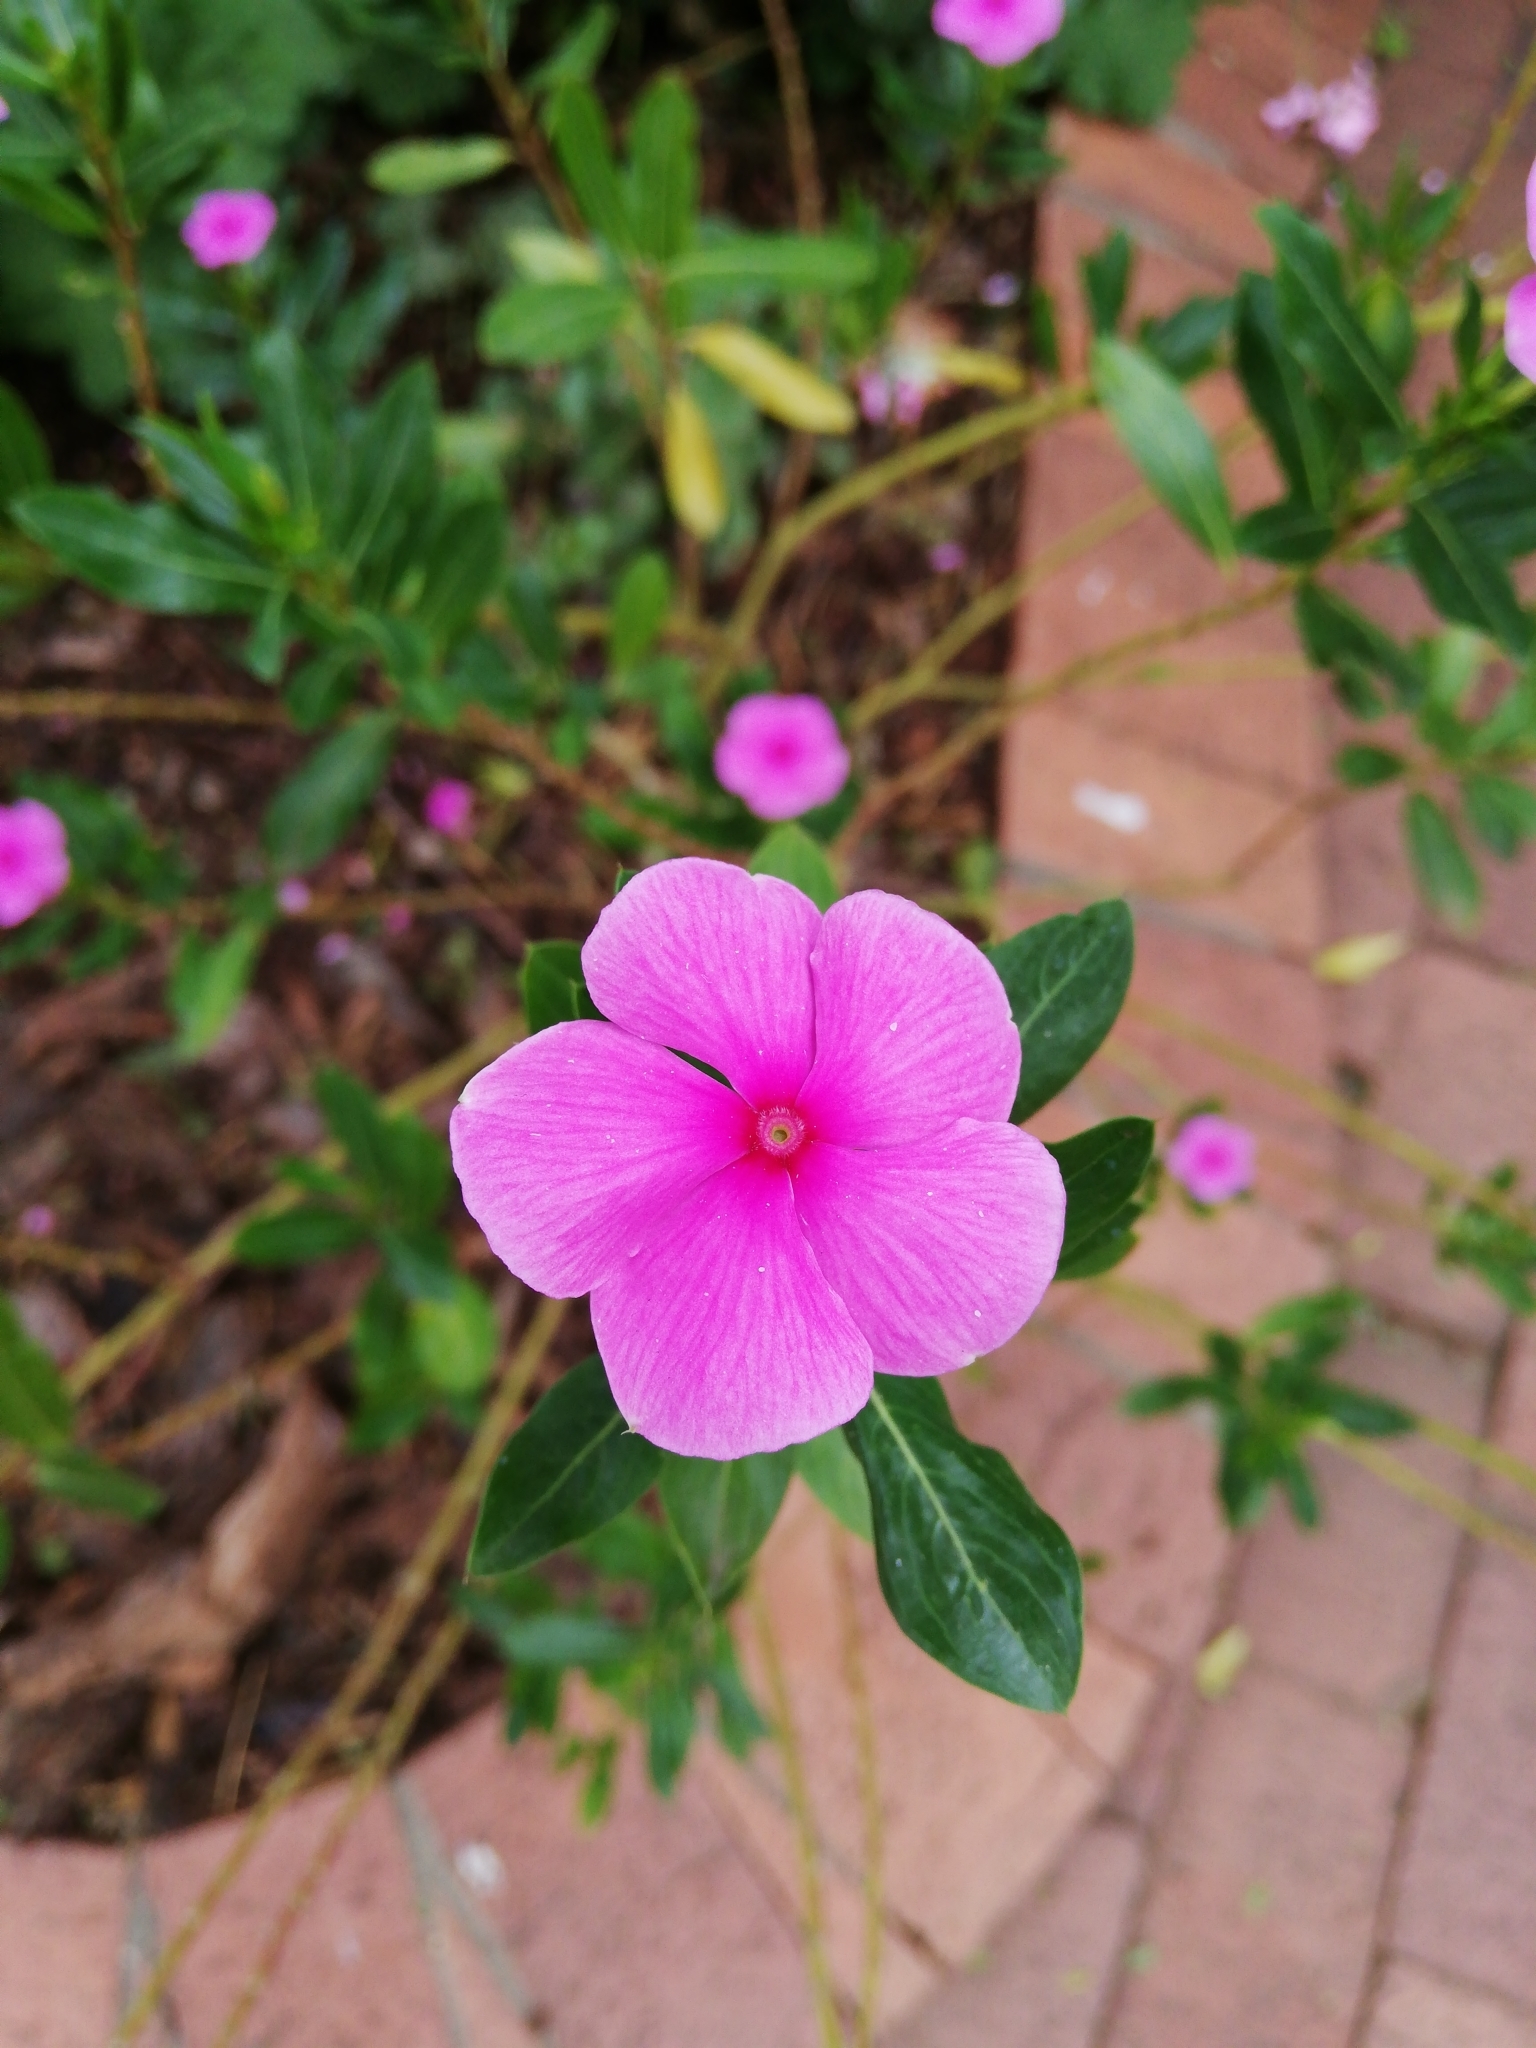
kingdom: Plantae
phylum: Tracheophyta
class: Magnoliopsida
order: Gentianales
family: Apocynaceae
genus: Catharanthus
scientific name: Catharanthus roseus
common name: Madagascar periwinkle
